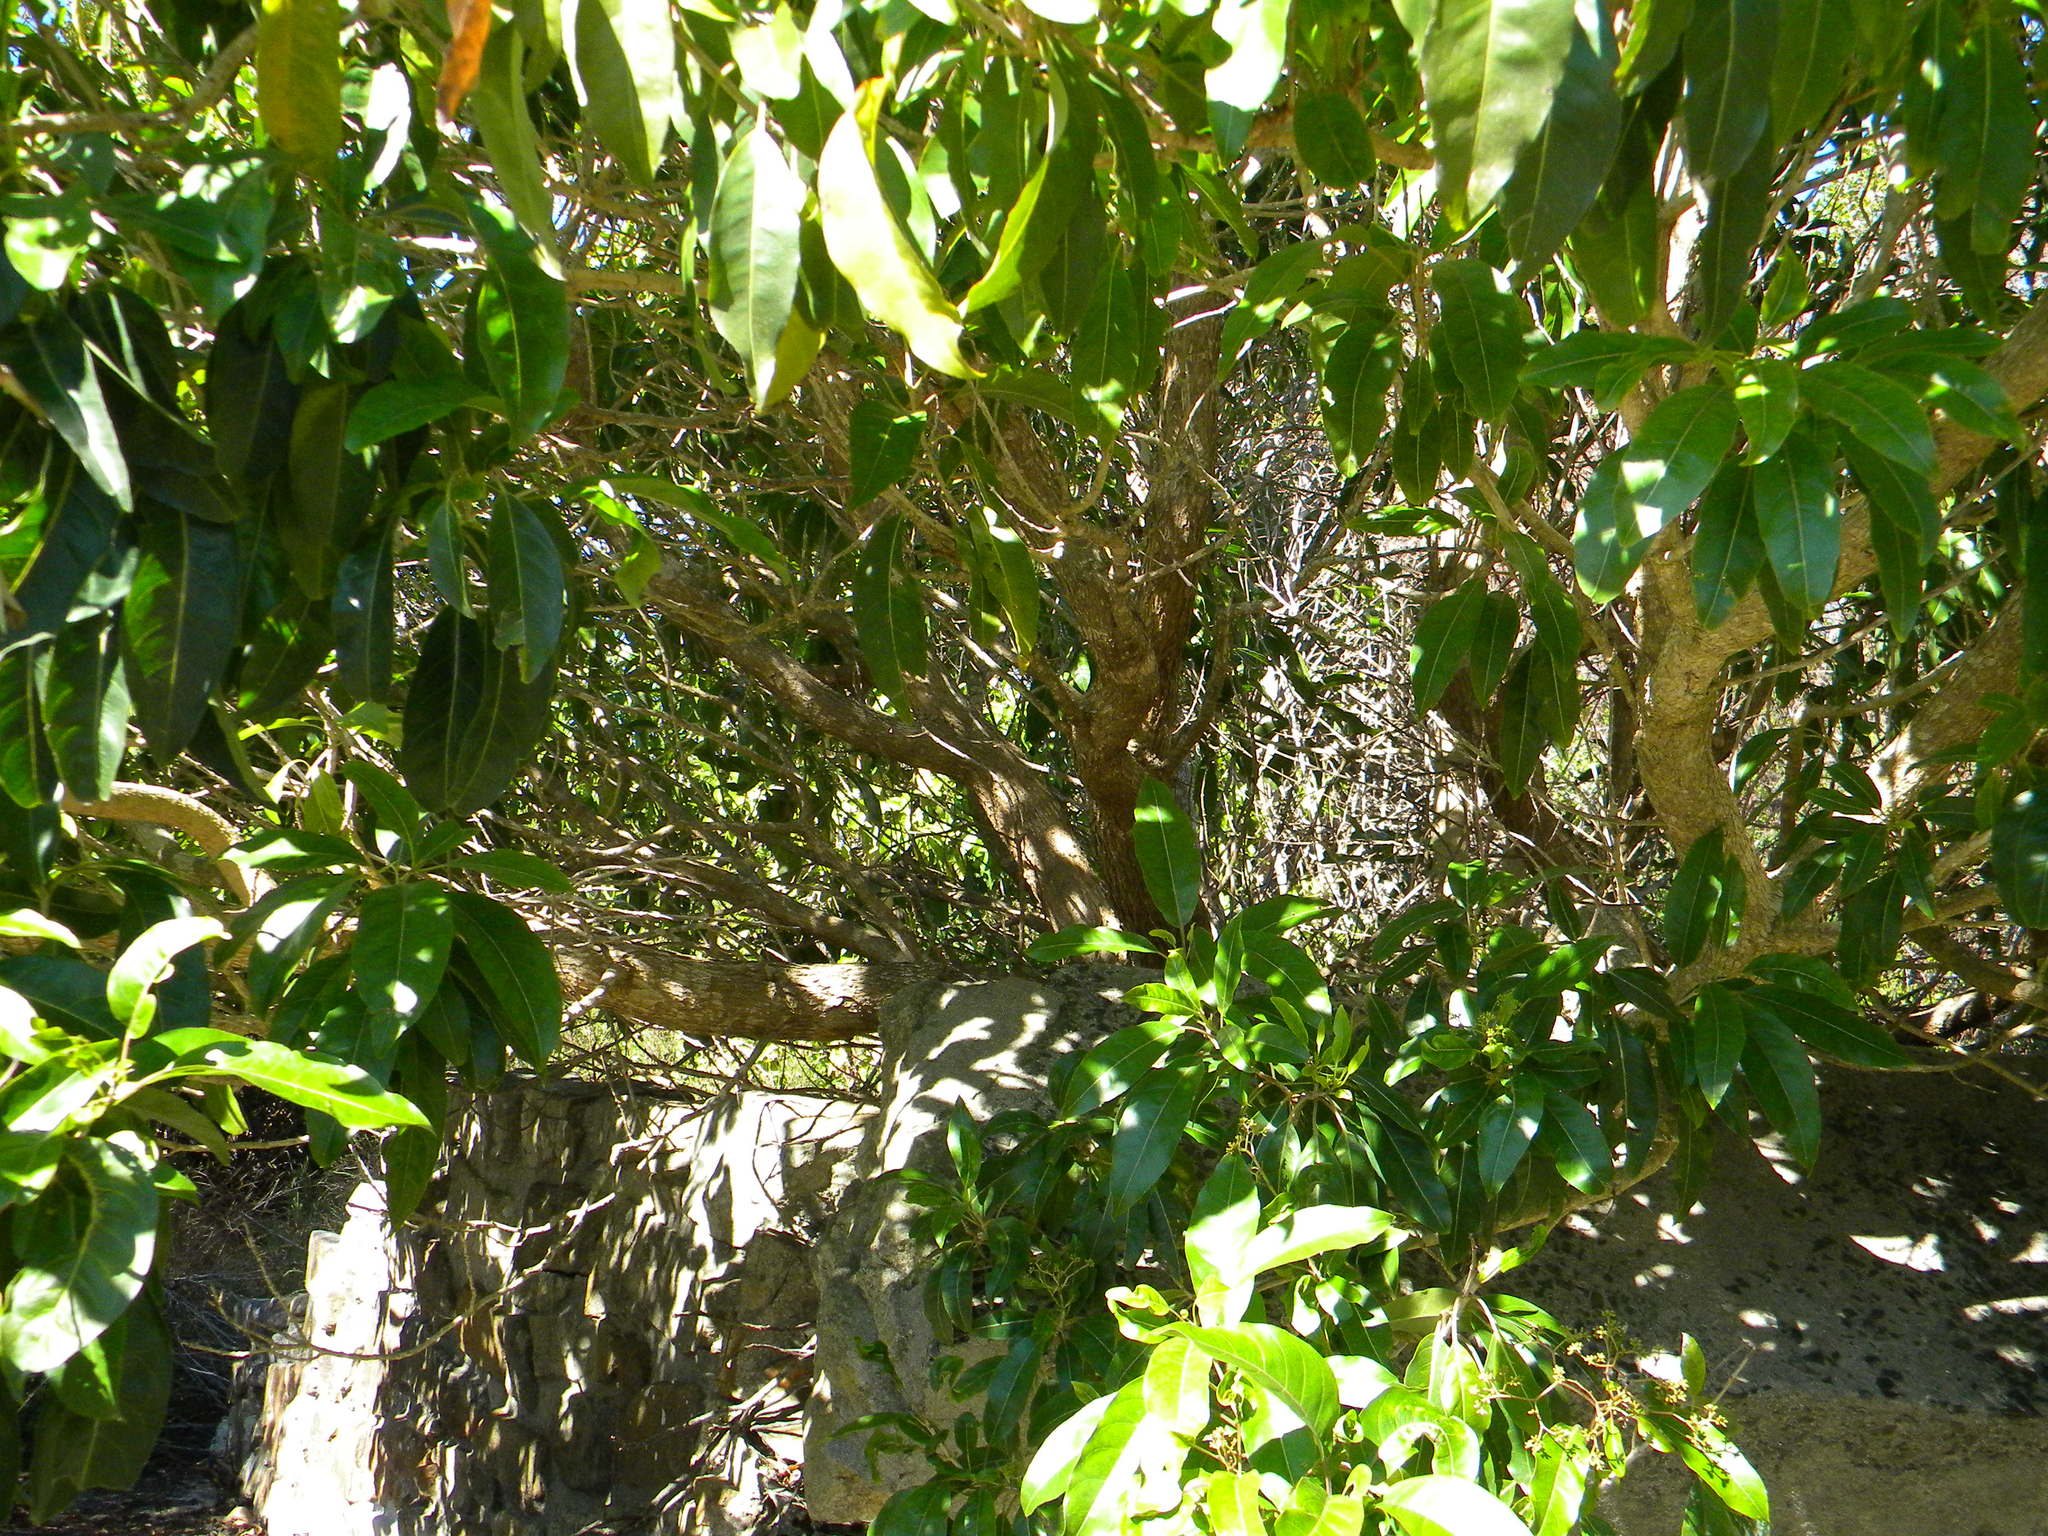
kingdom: Plantae
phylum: Tracheophyta
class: Magnoliopsida
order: Lamiales
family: Stilbaceae
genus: Nuxia
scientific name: Nuxia floribunda
